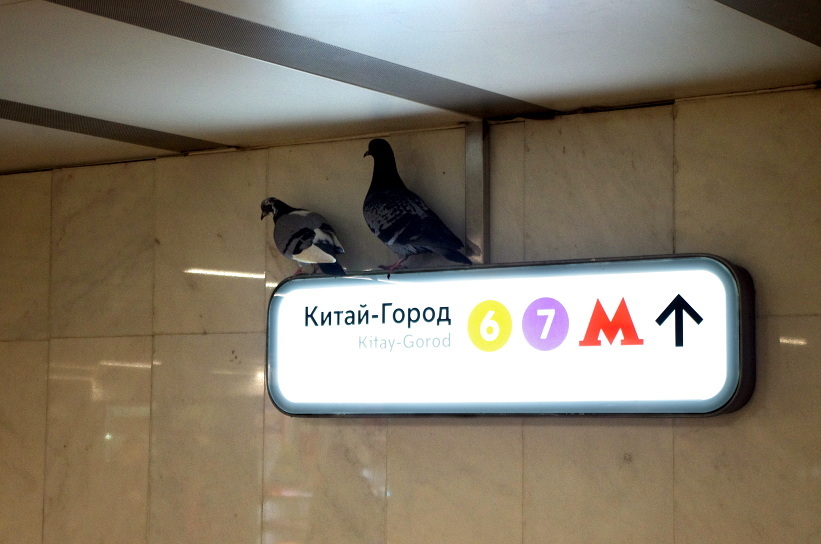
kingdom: Animalia
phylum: Chordata
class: Aves
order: Columbiformes
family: Columbidae
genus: Columba
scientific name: Columba livia
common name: Rock pigeon
